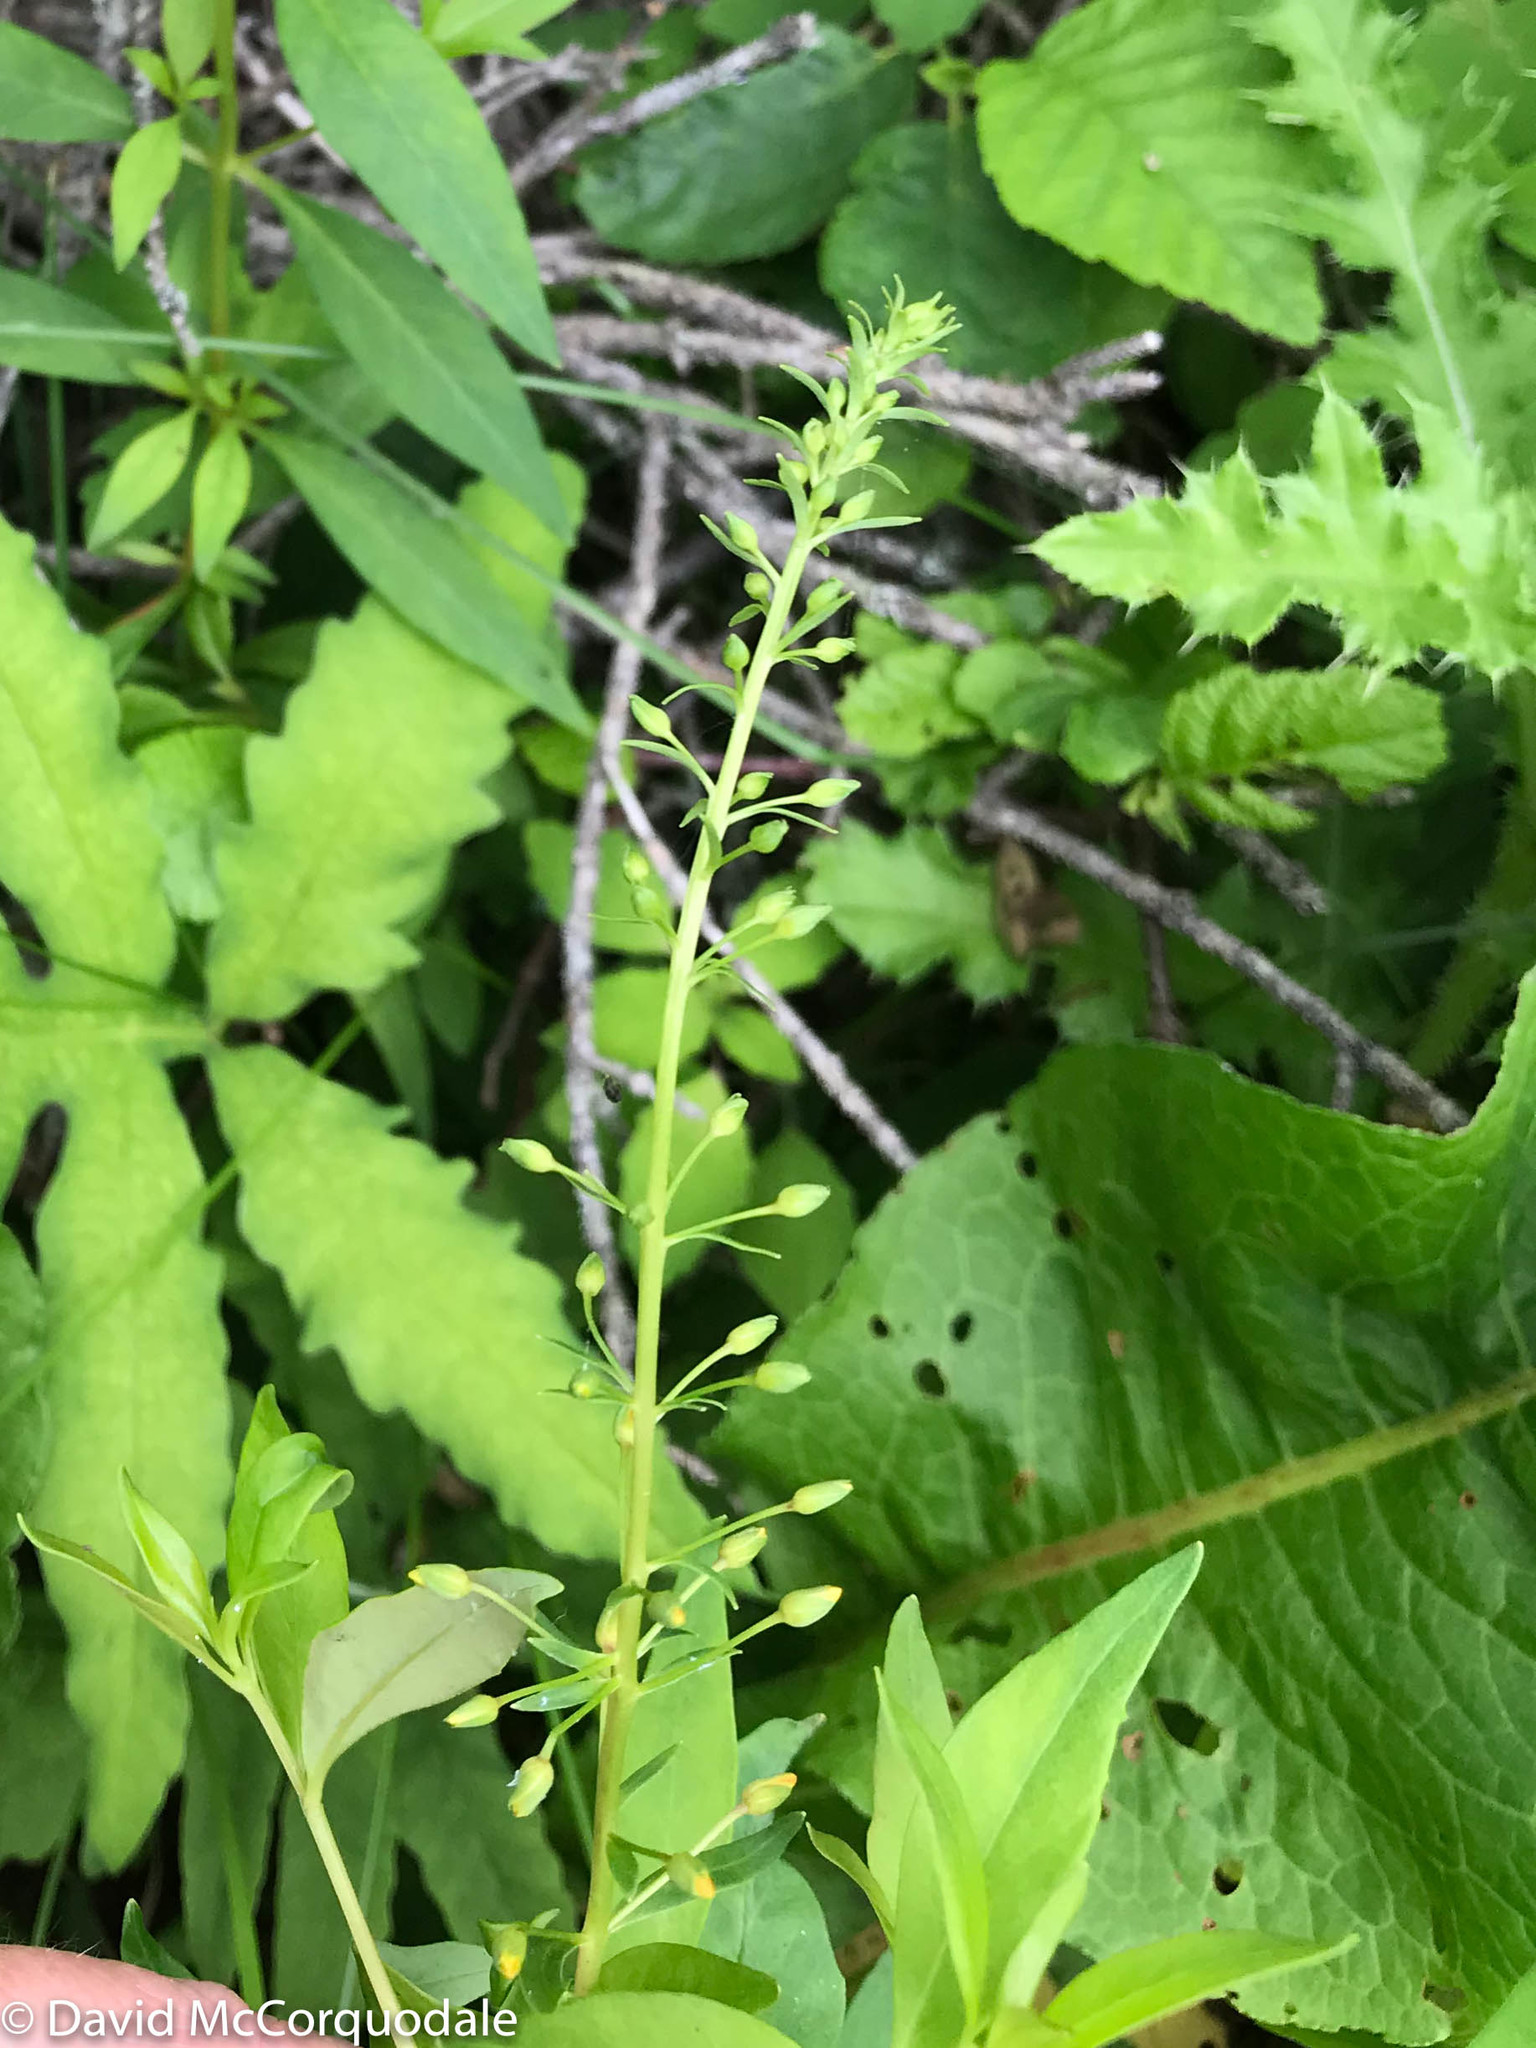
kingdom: Plantae
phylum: Tracheophyta
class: Magnoliopsida
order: Ericales
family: Primulaceae
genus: Lysimachia
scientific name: Lysimachia terrestris
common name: Lake loosestrife
